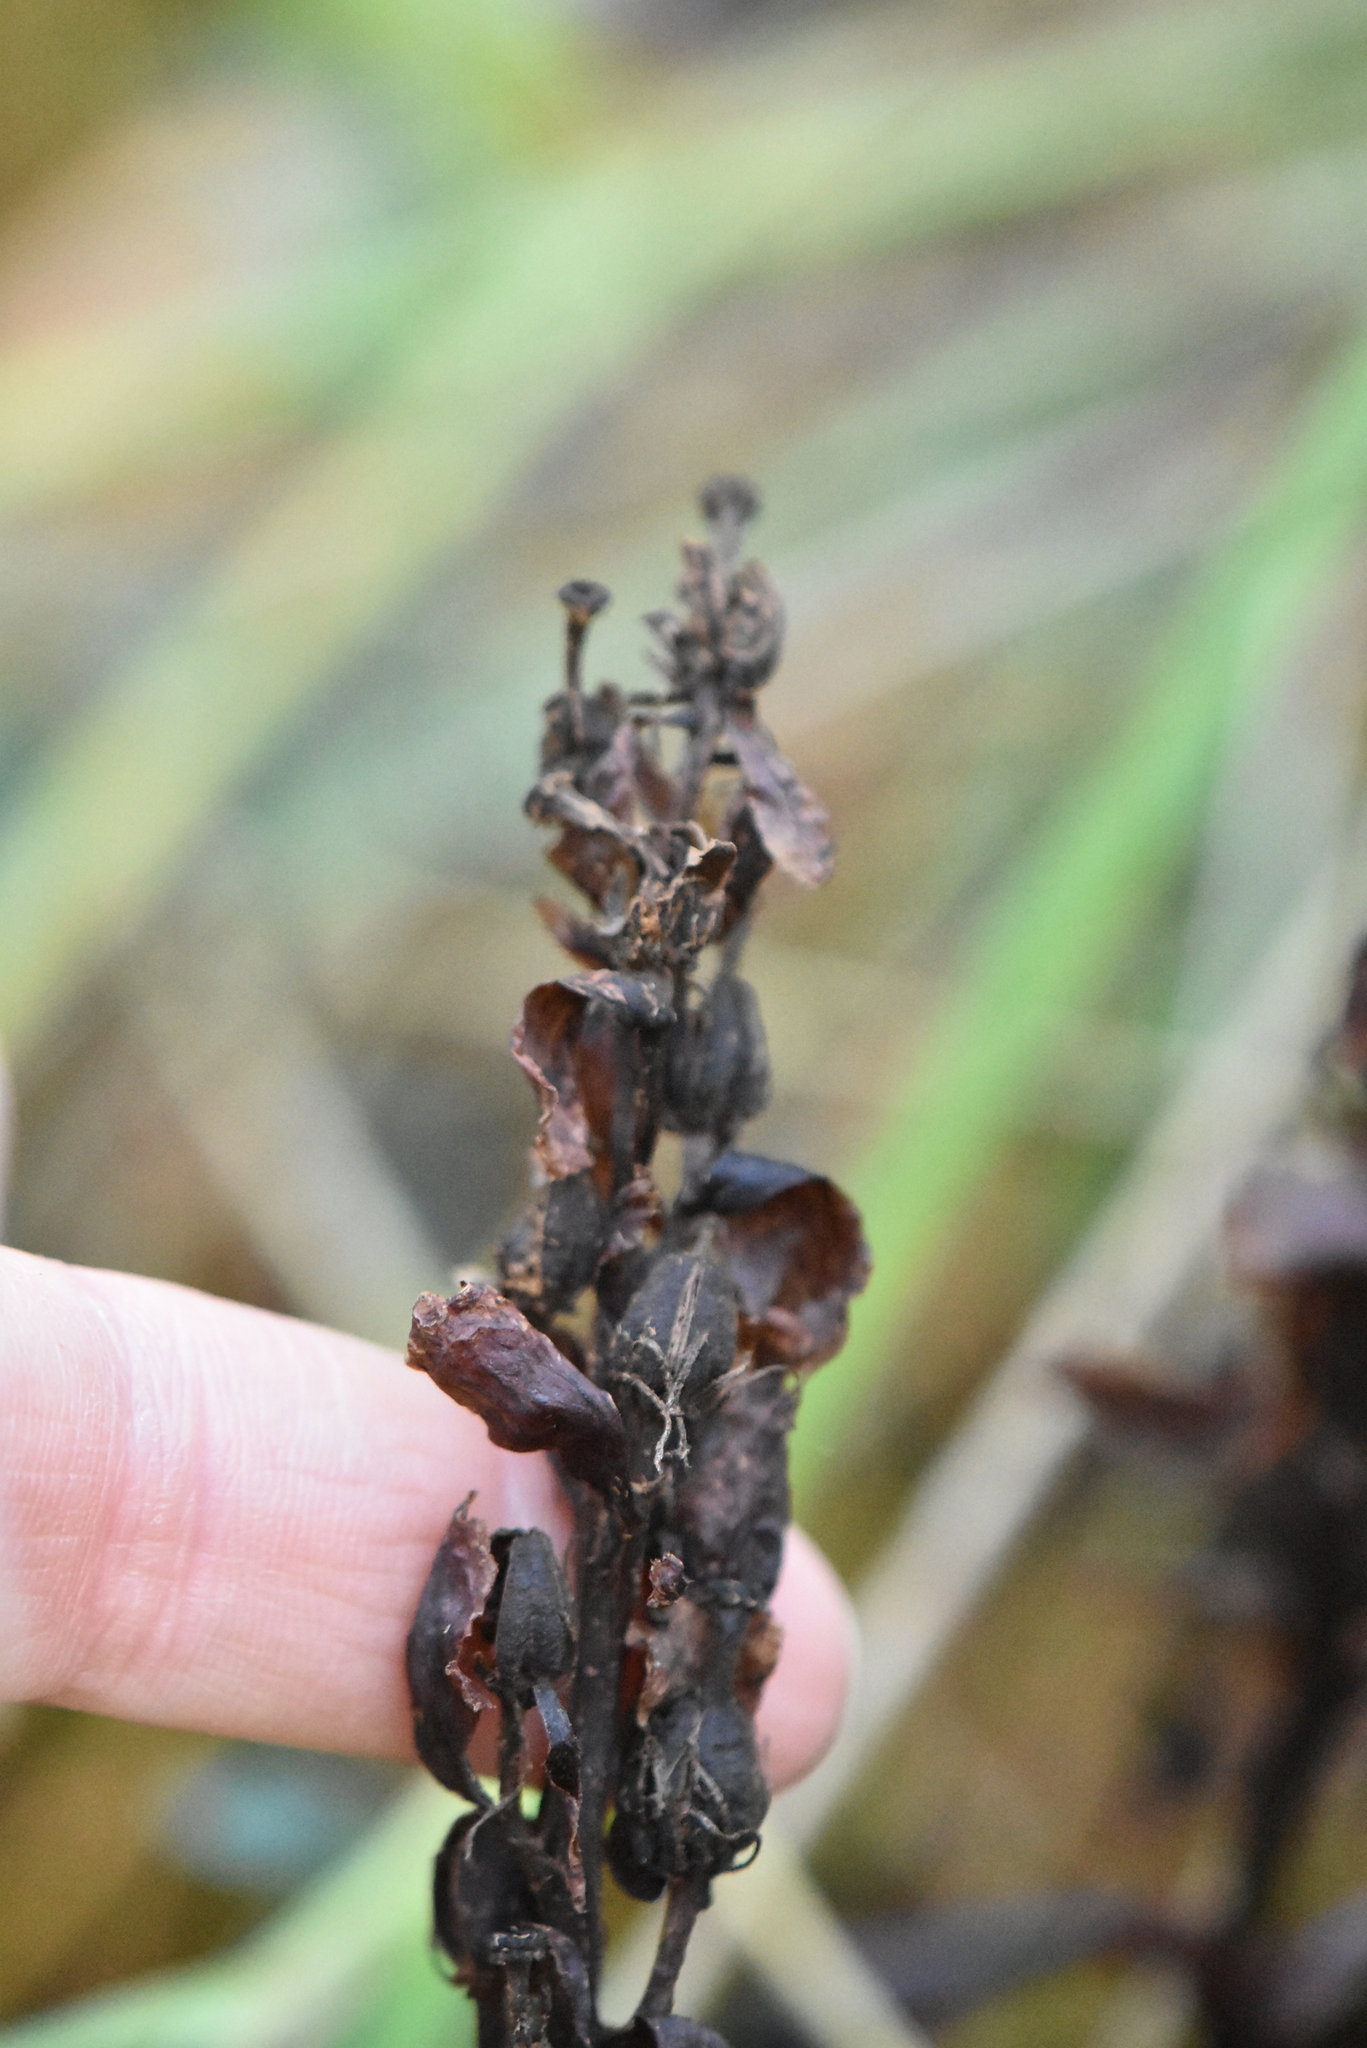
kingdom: Plantae
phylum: Tracheophyta
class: Magnoliopsida
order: Ericales
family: Ericaceae
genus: Hypopitys
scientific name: Hypopitys monotropa
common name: Yellow bird's-nest
